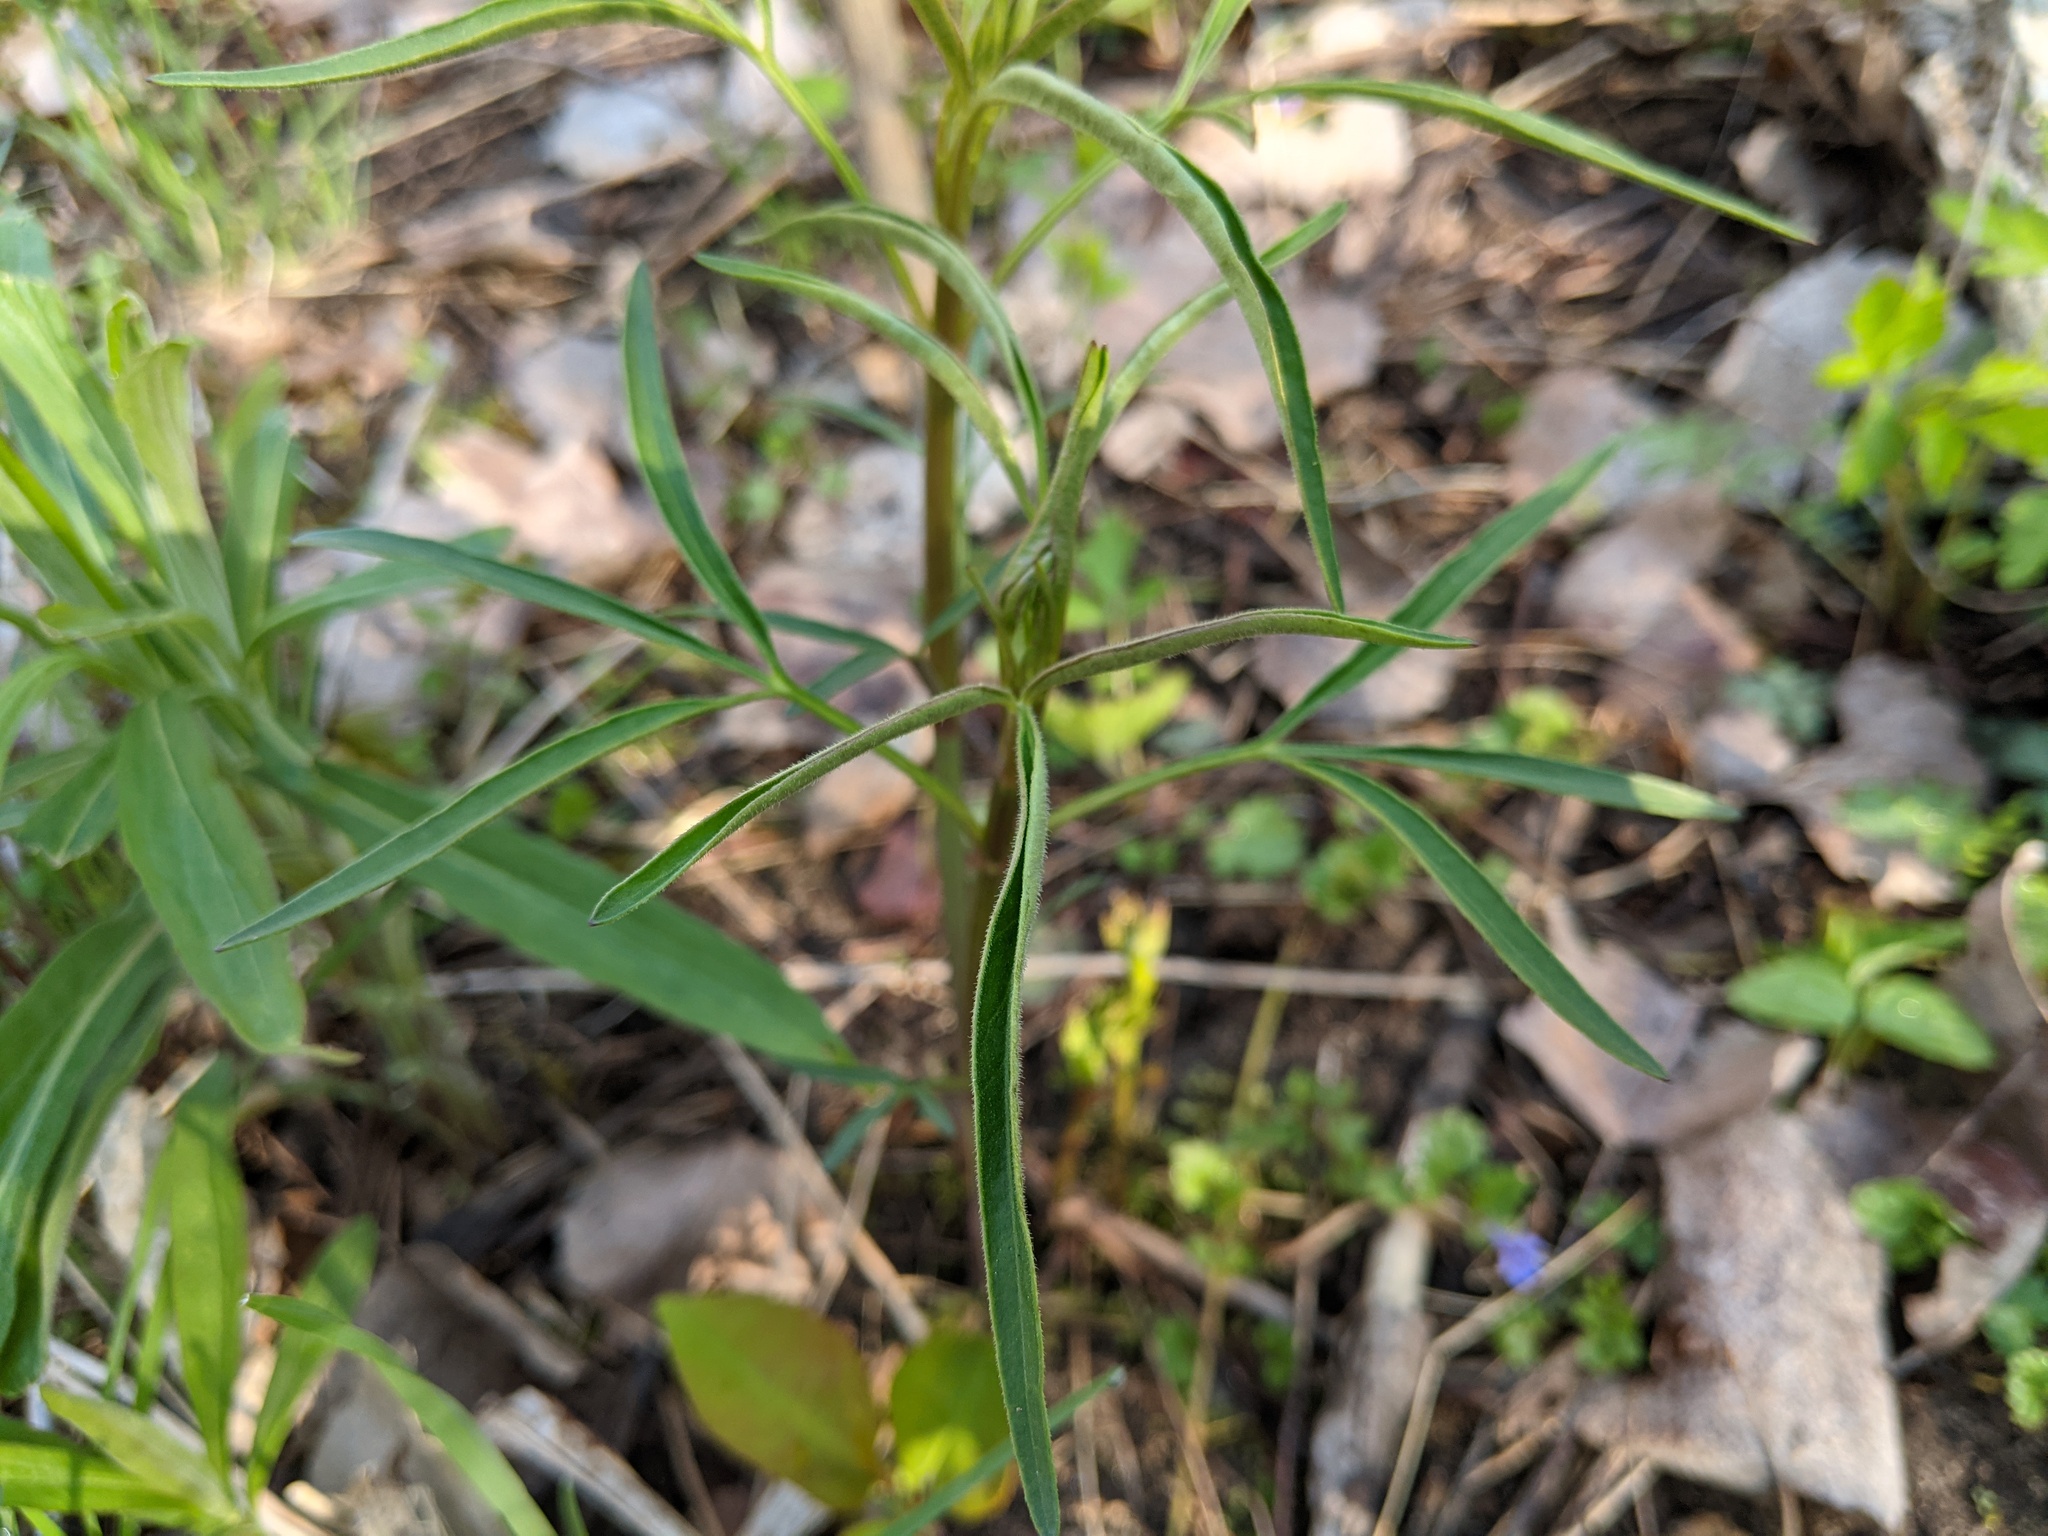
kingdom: Plantae
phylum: Tracheophyta
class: Magnoliopsida
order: Asterales
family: Asteraceae
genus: Coreopsis
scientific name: Coreopsis tripteris
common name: Tall coreopsis
